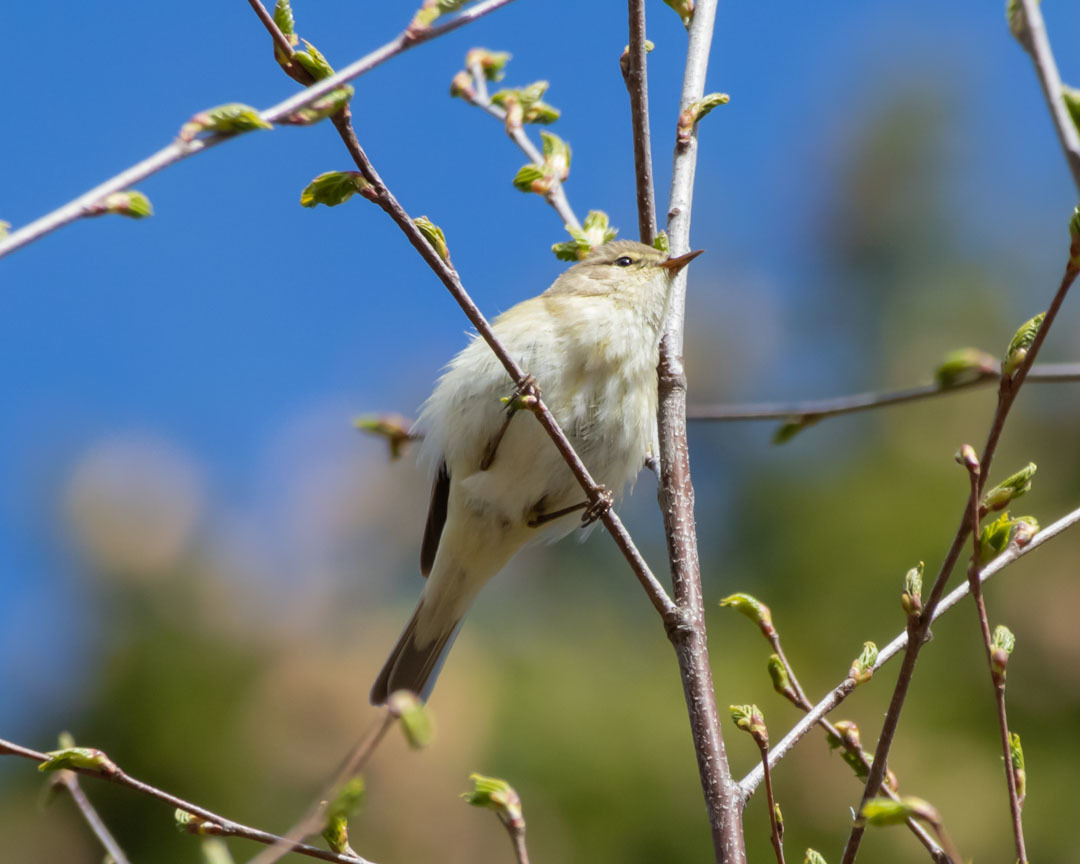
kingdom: Animalia
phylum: Chordata
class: Aves
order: Passeriformes
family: Phylloscopidae
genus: Phylloscopus
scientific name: Phylloscopus collybita
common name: Common chiffchaff
